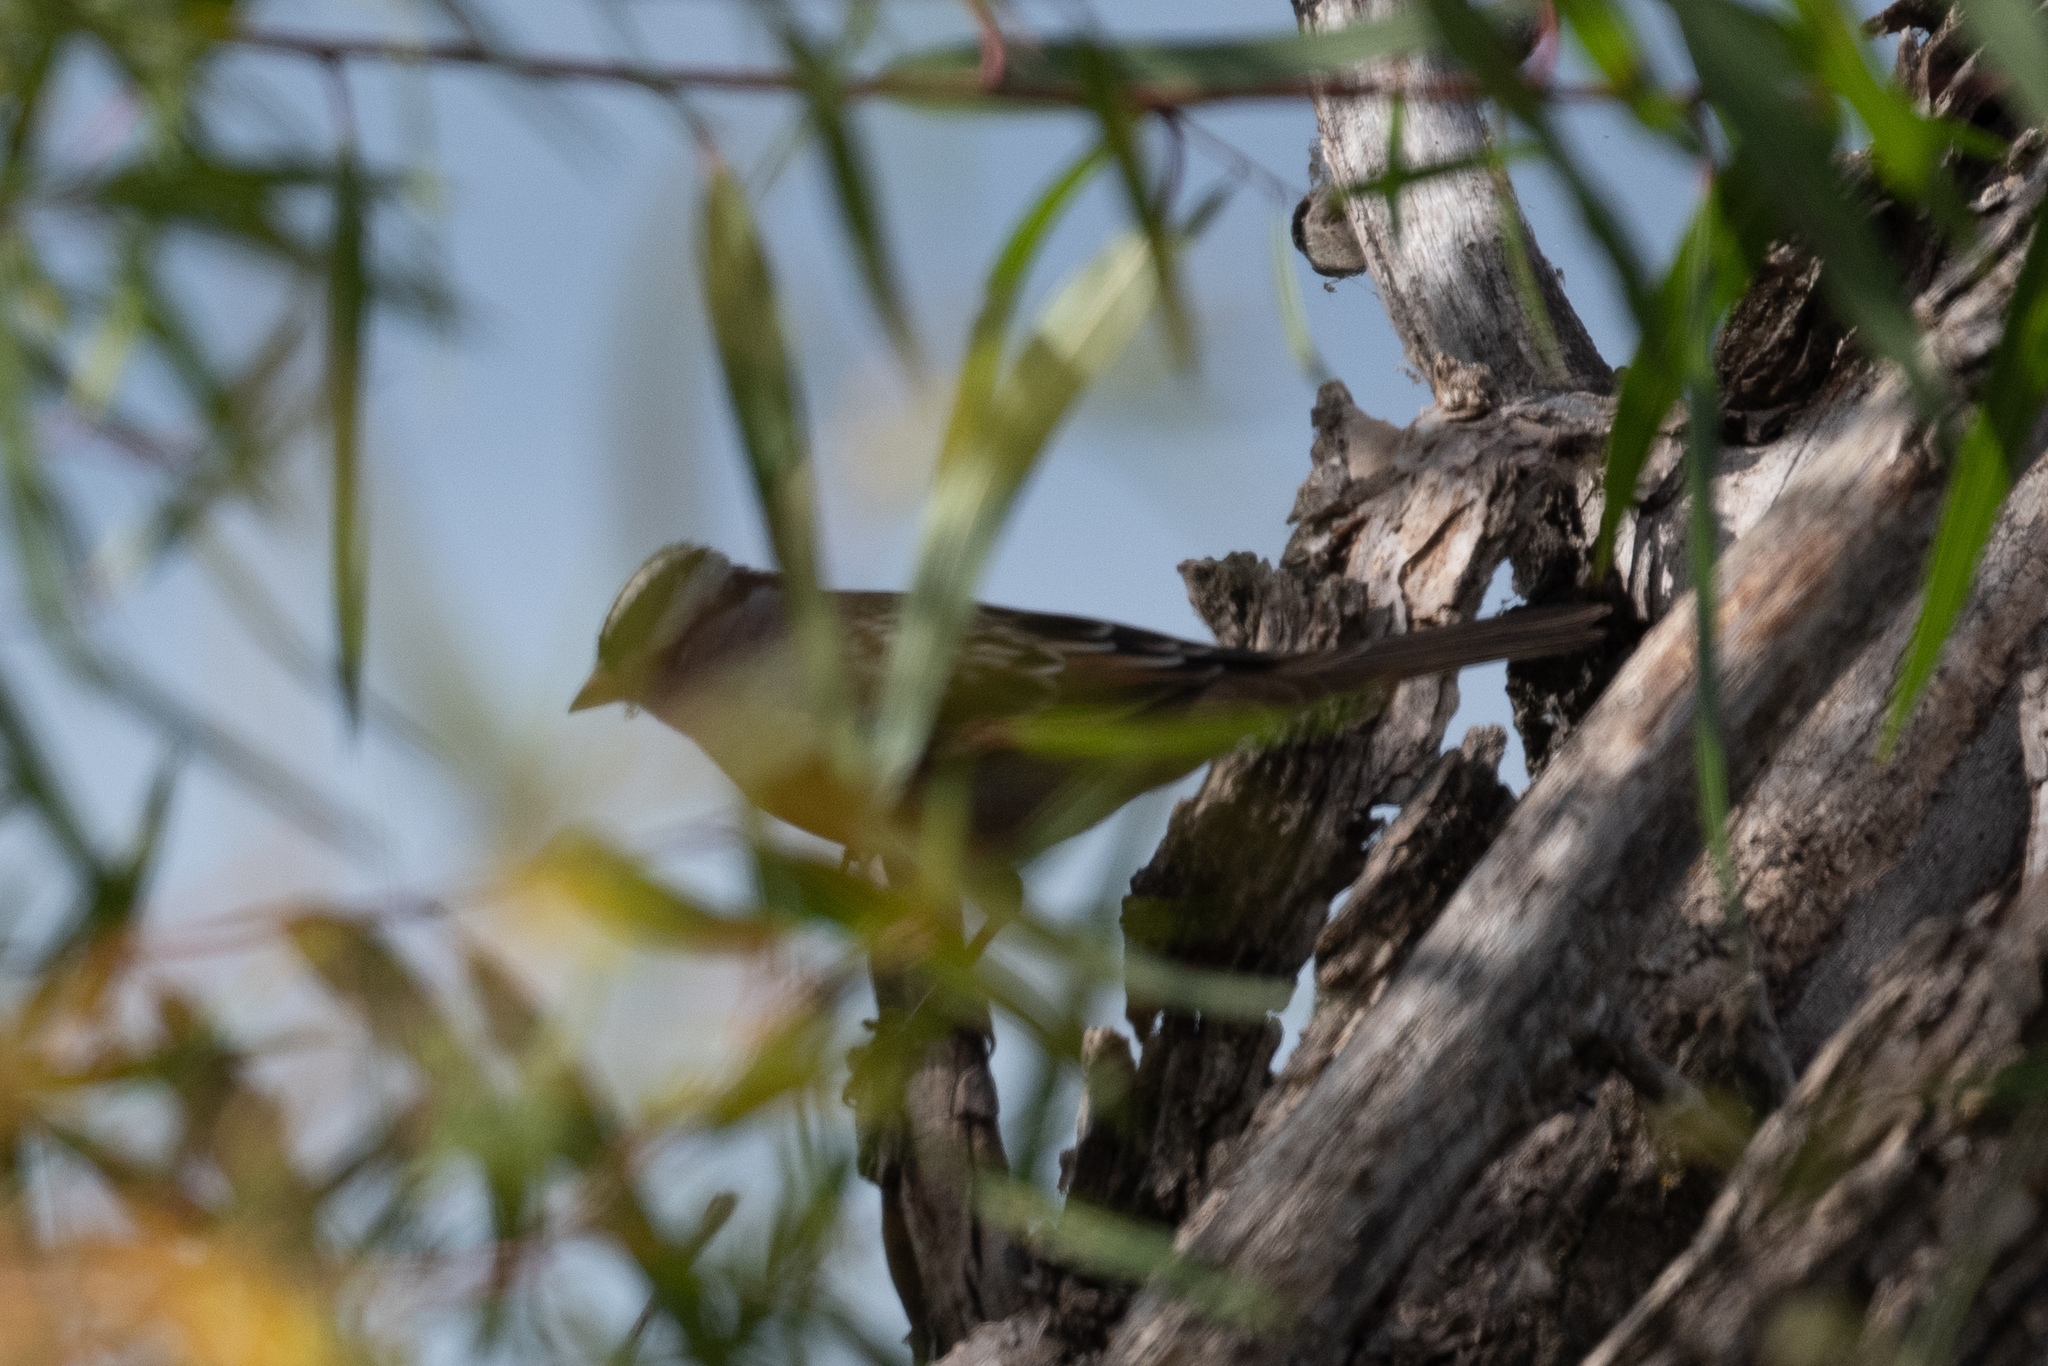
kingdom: Animalia
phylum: Chordata
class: Aves
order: Passeriformes
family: Passerellidae
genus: Zonotrichia
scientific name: Zonotrichia leucophrys
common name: White-crowned sparrow
